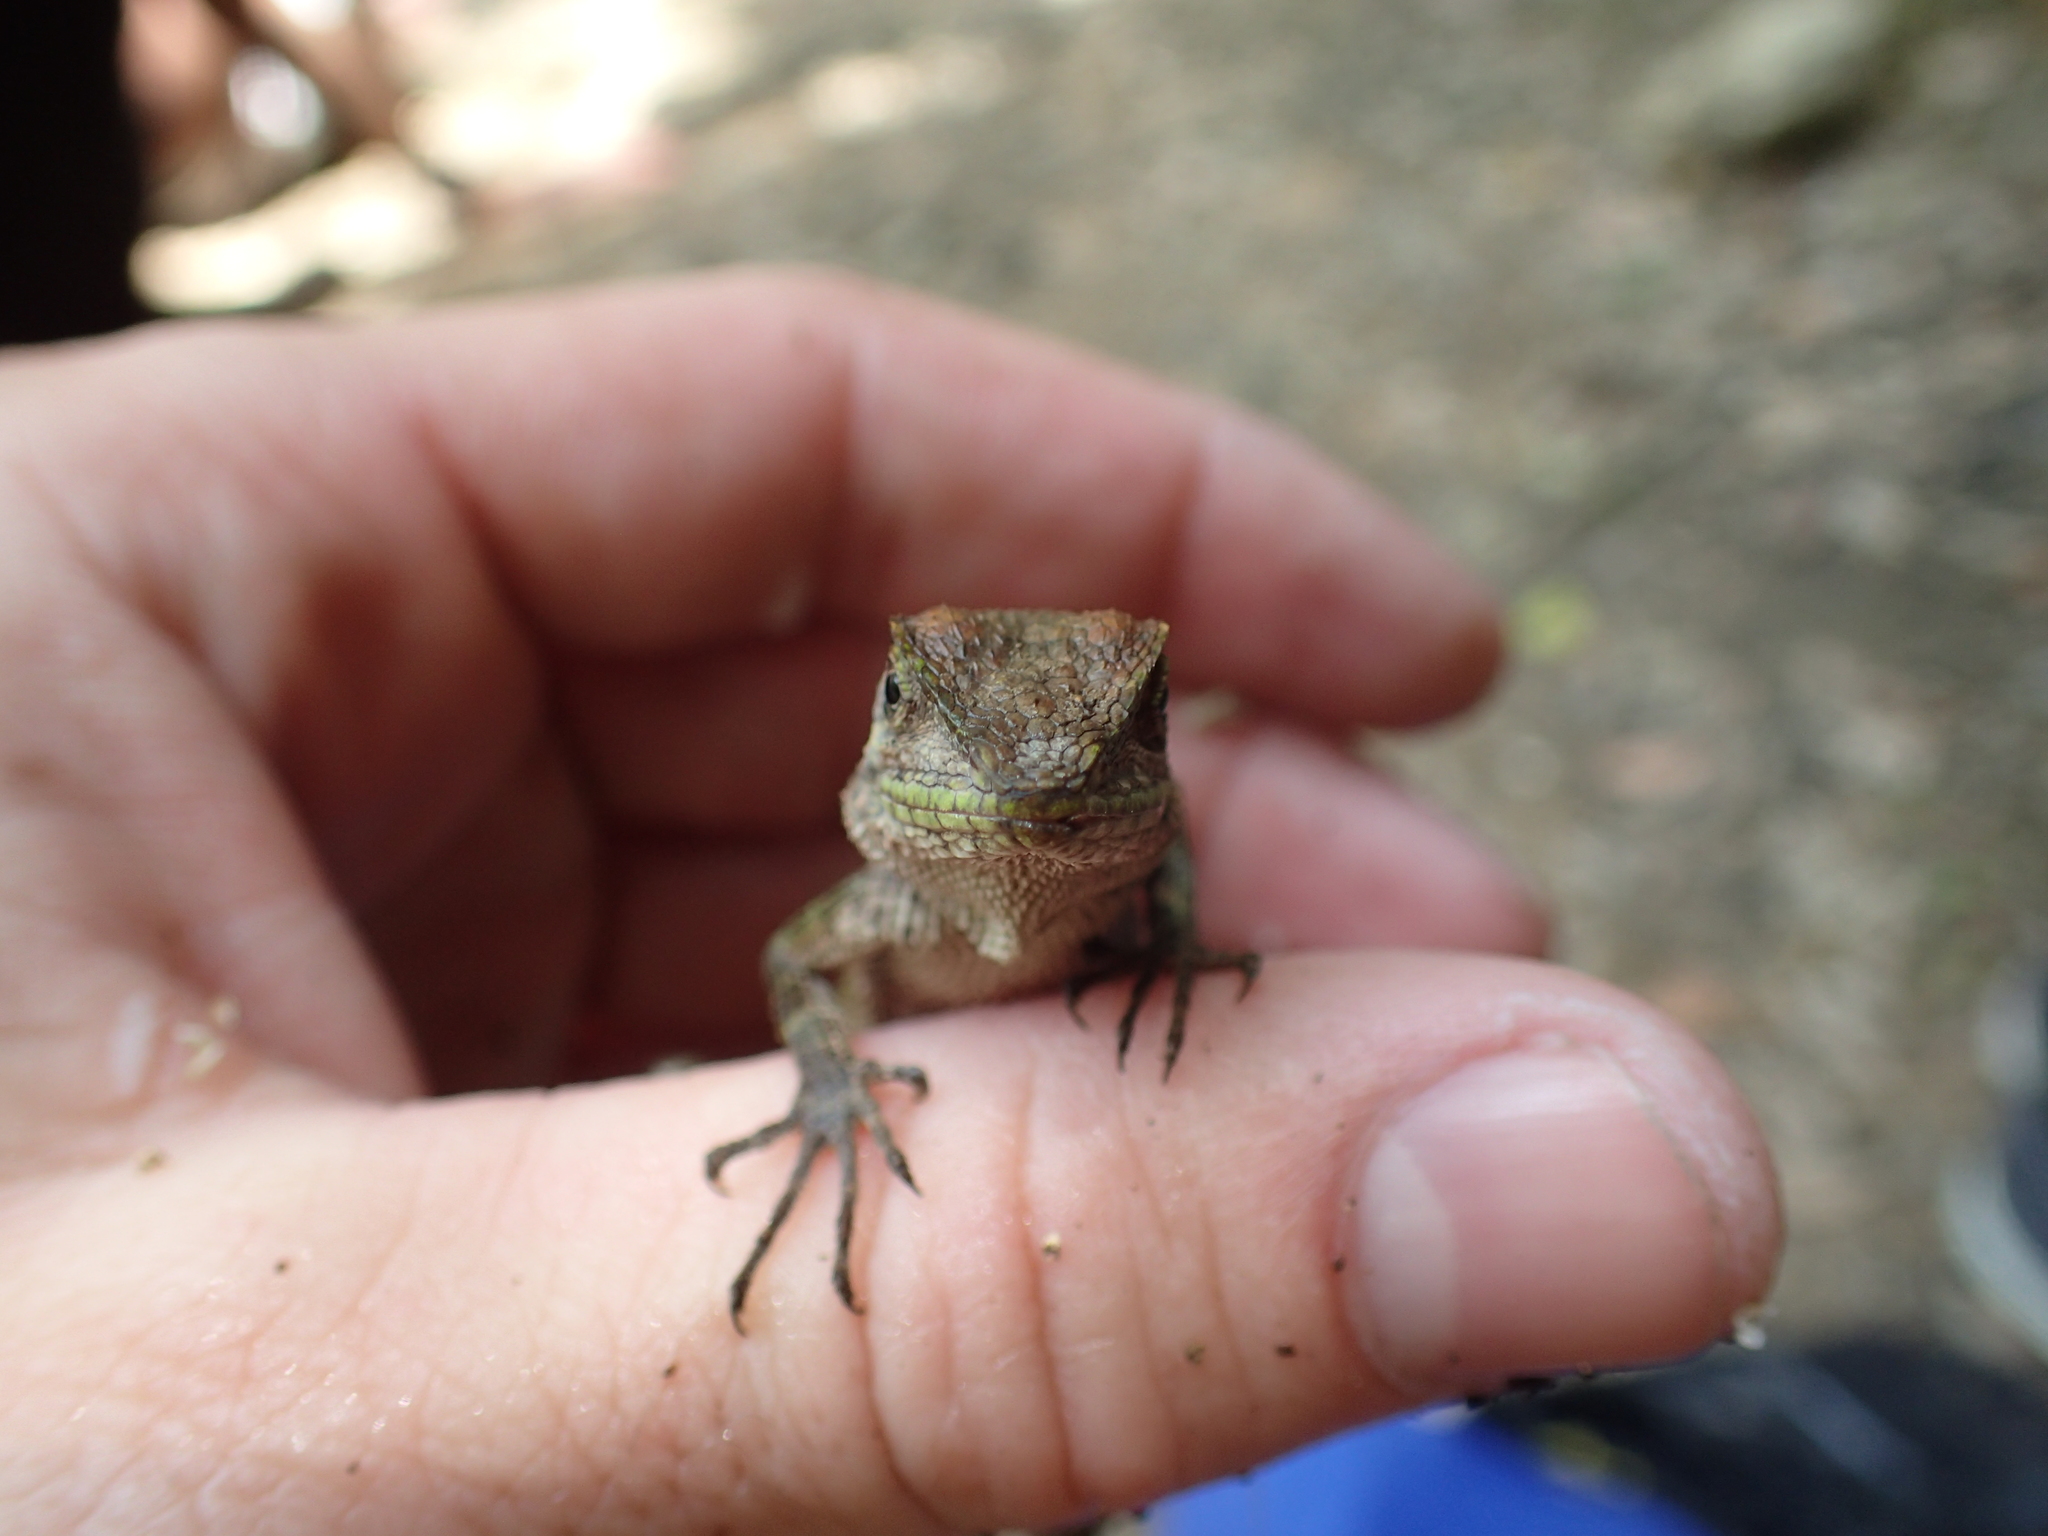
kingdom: Fungi
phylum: Basidiomycota
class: Agaricomycetes
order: Boletales
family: Diplocystidiaceae
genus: Diploderma
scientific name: Diploderma polygonatum
